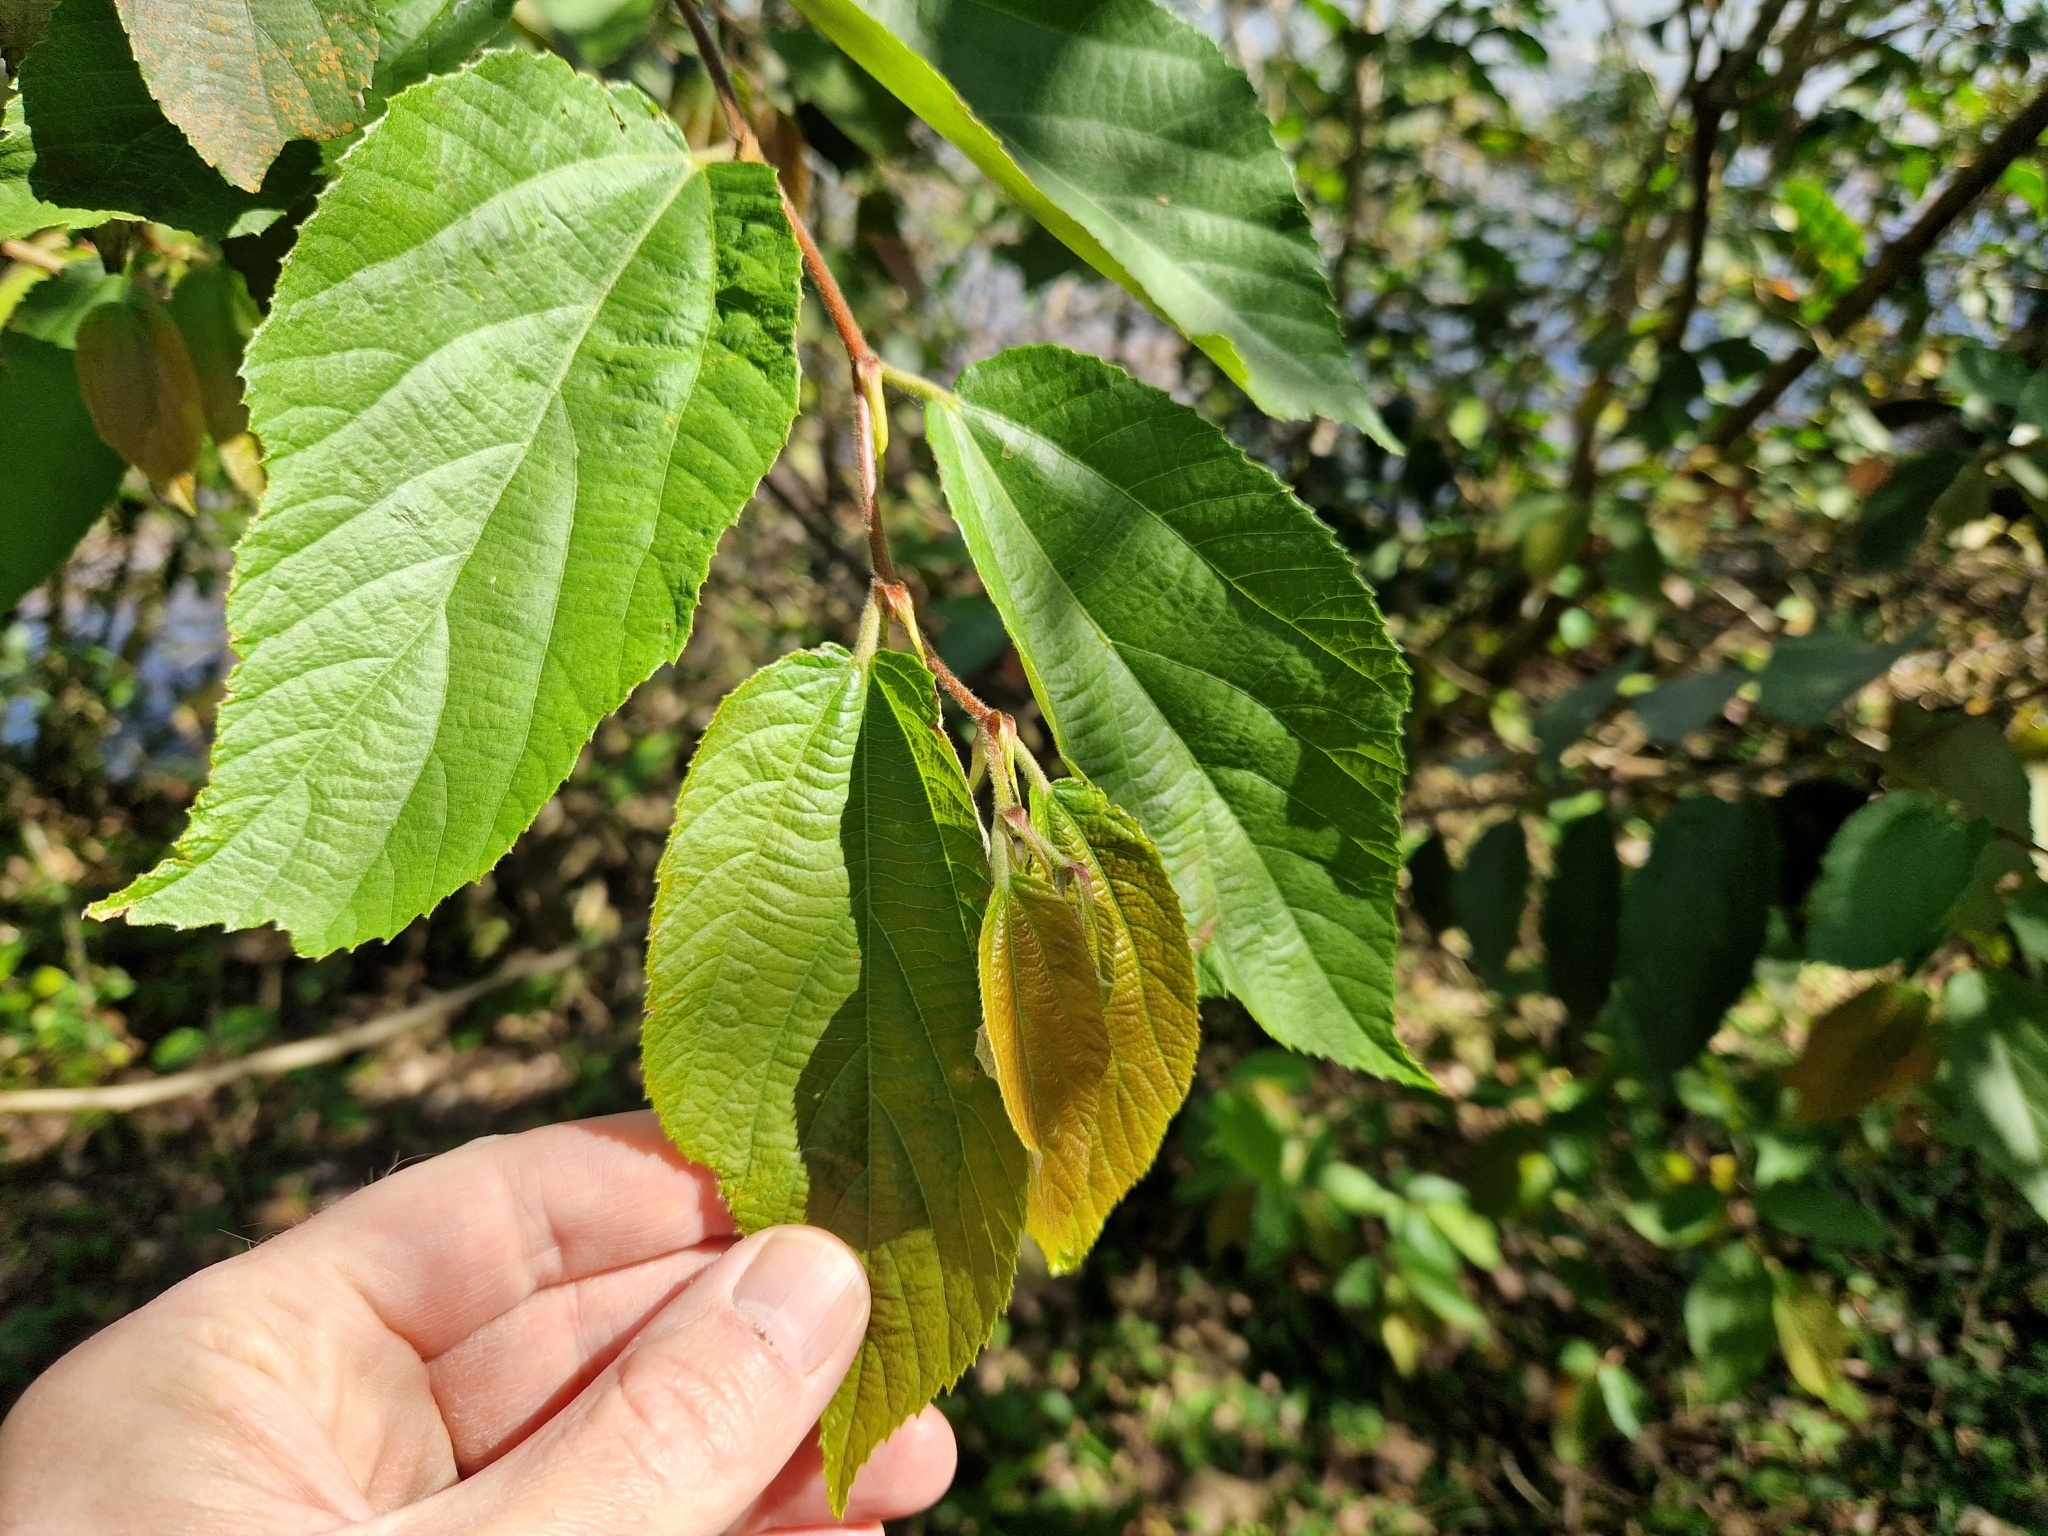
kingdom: Plantae
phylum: Tracheophyta
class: Magnoliopsida
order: Malvales
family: Malvaceae
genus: Luehea
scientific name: Luehea divaricata
